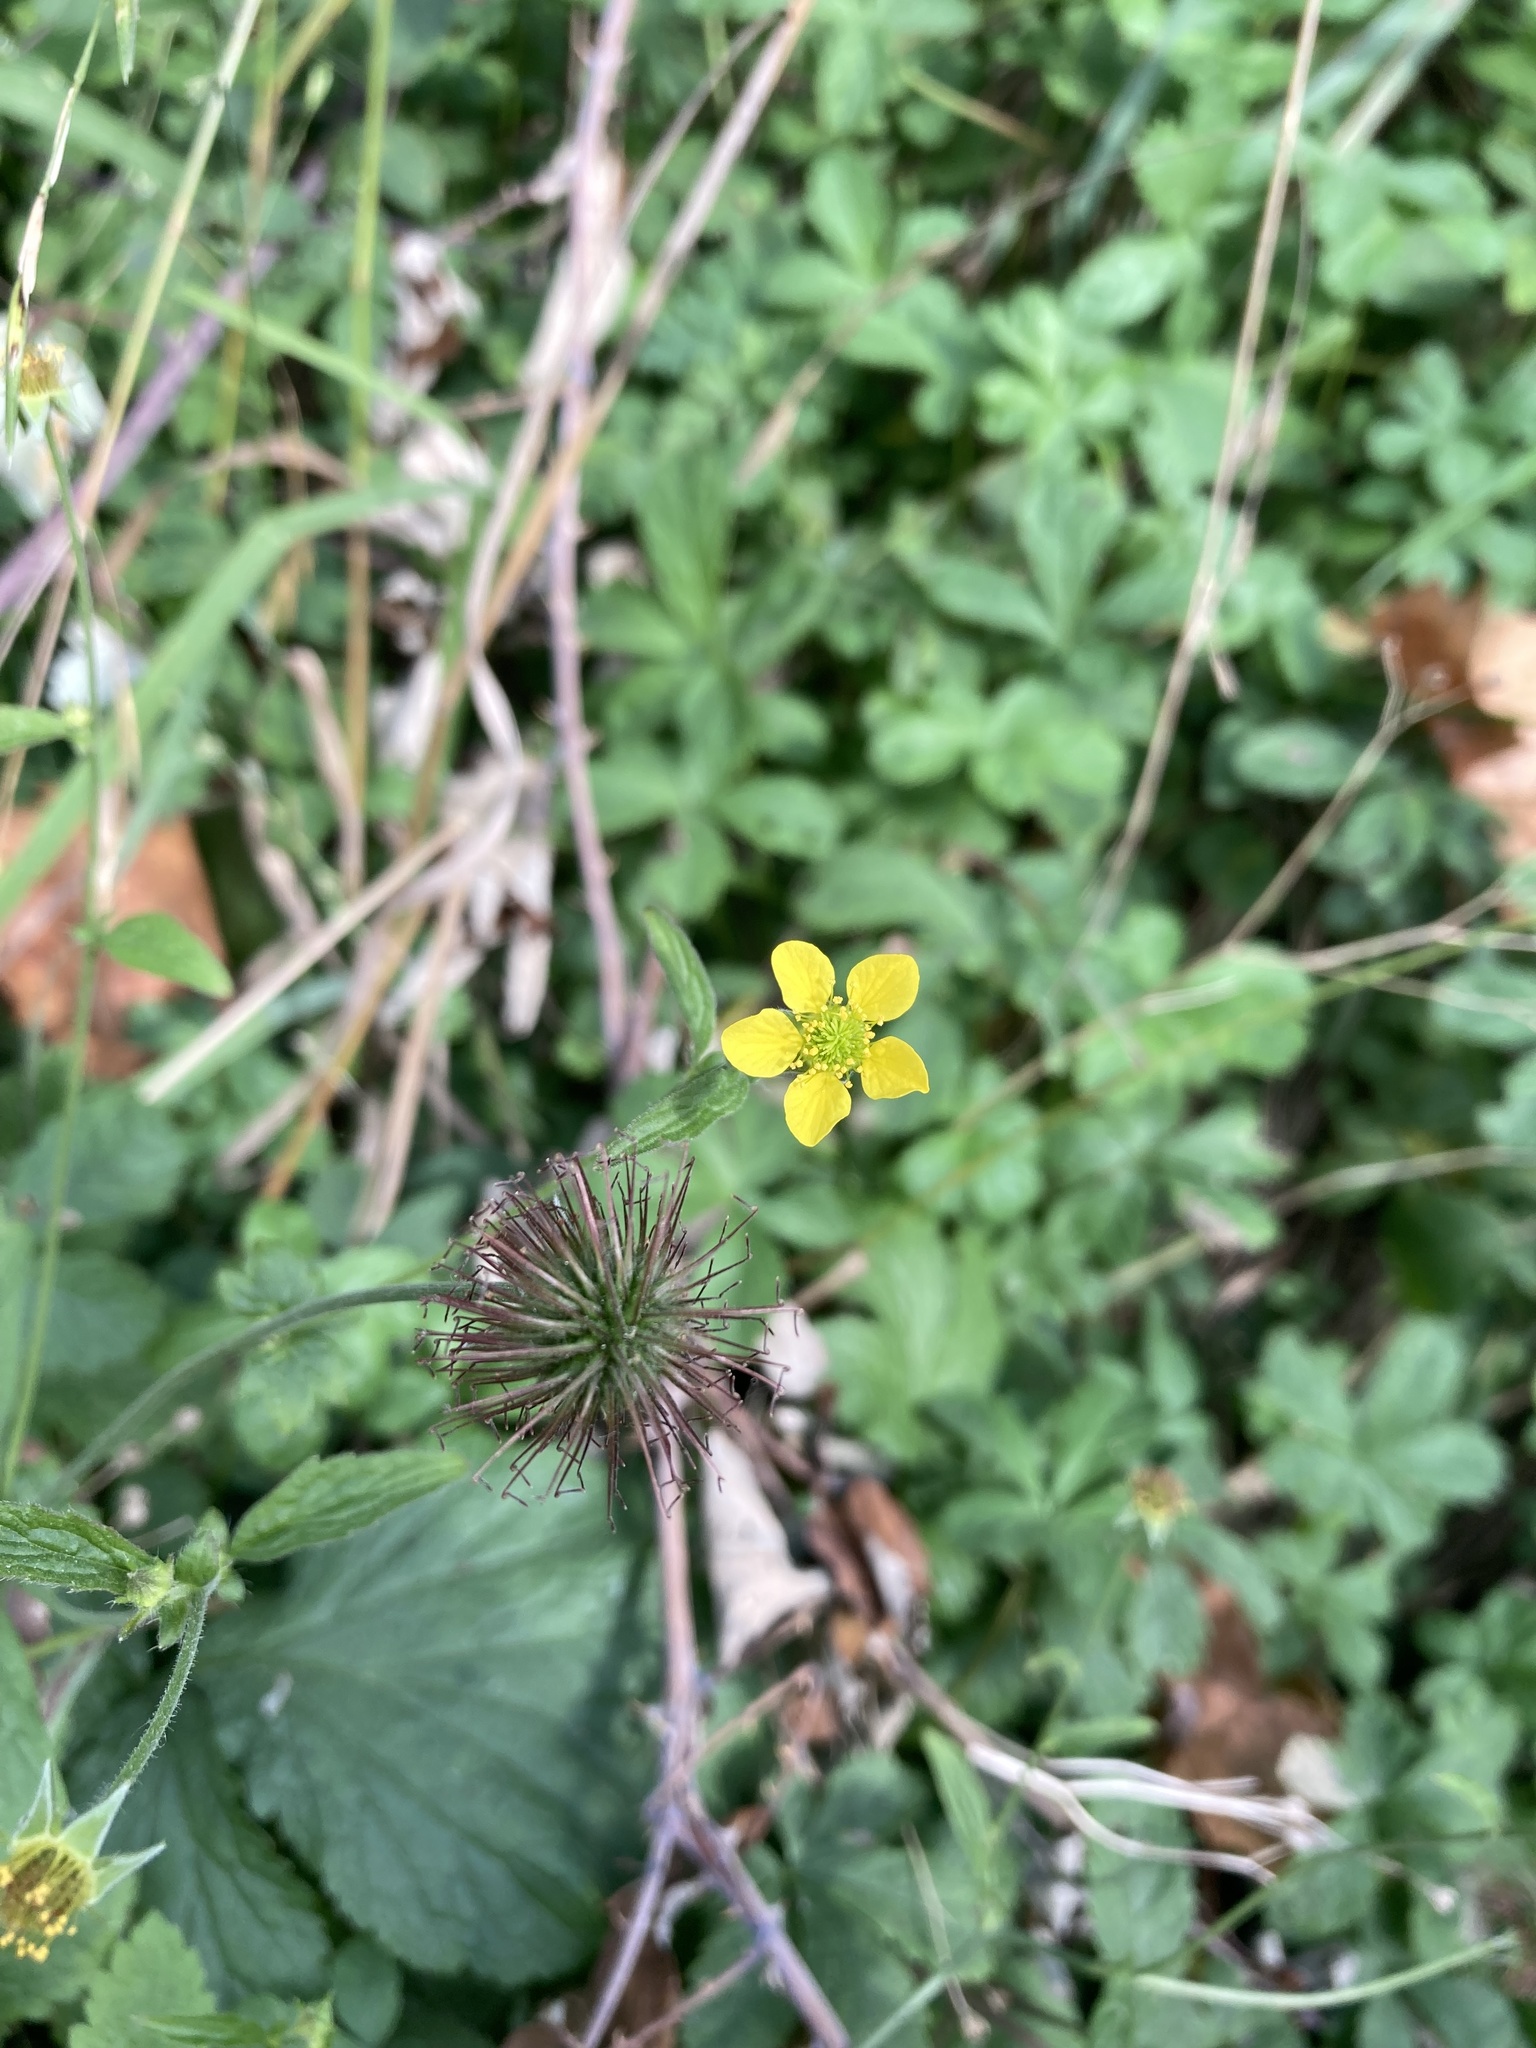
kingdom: Plantae
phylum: Tracheophyta
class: Magnoliopsida
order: Rosales
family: Rosaceae
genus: Geum
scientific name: Geum urbanum
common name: Wood avens
